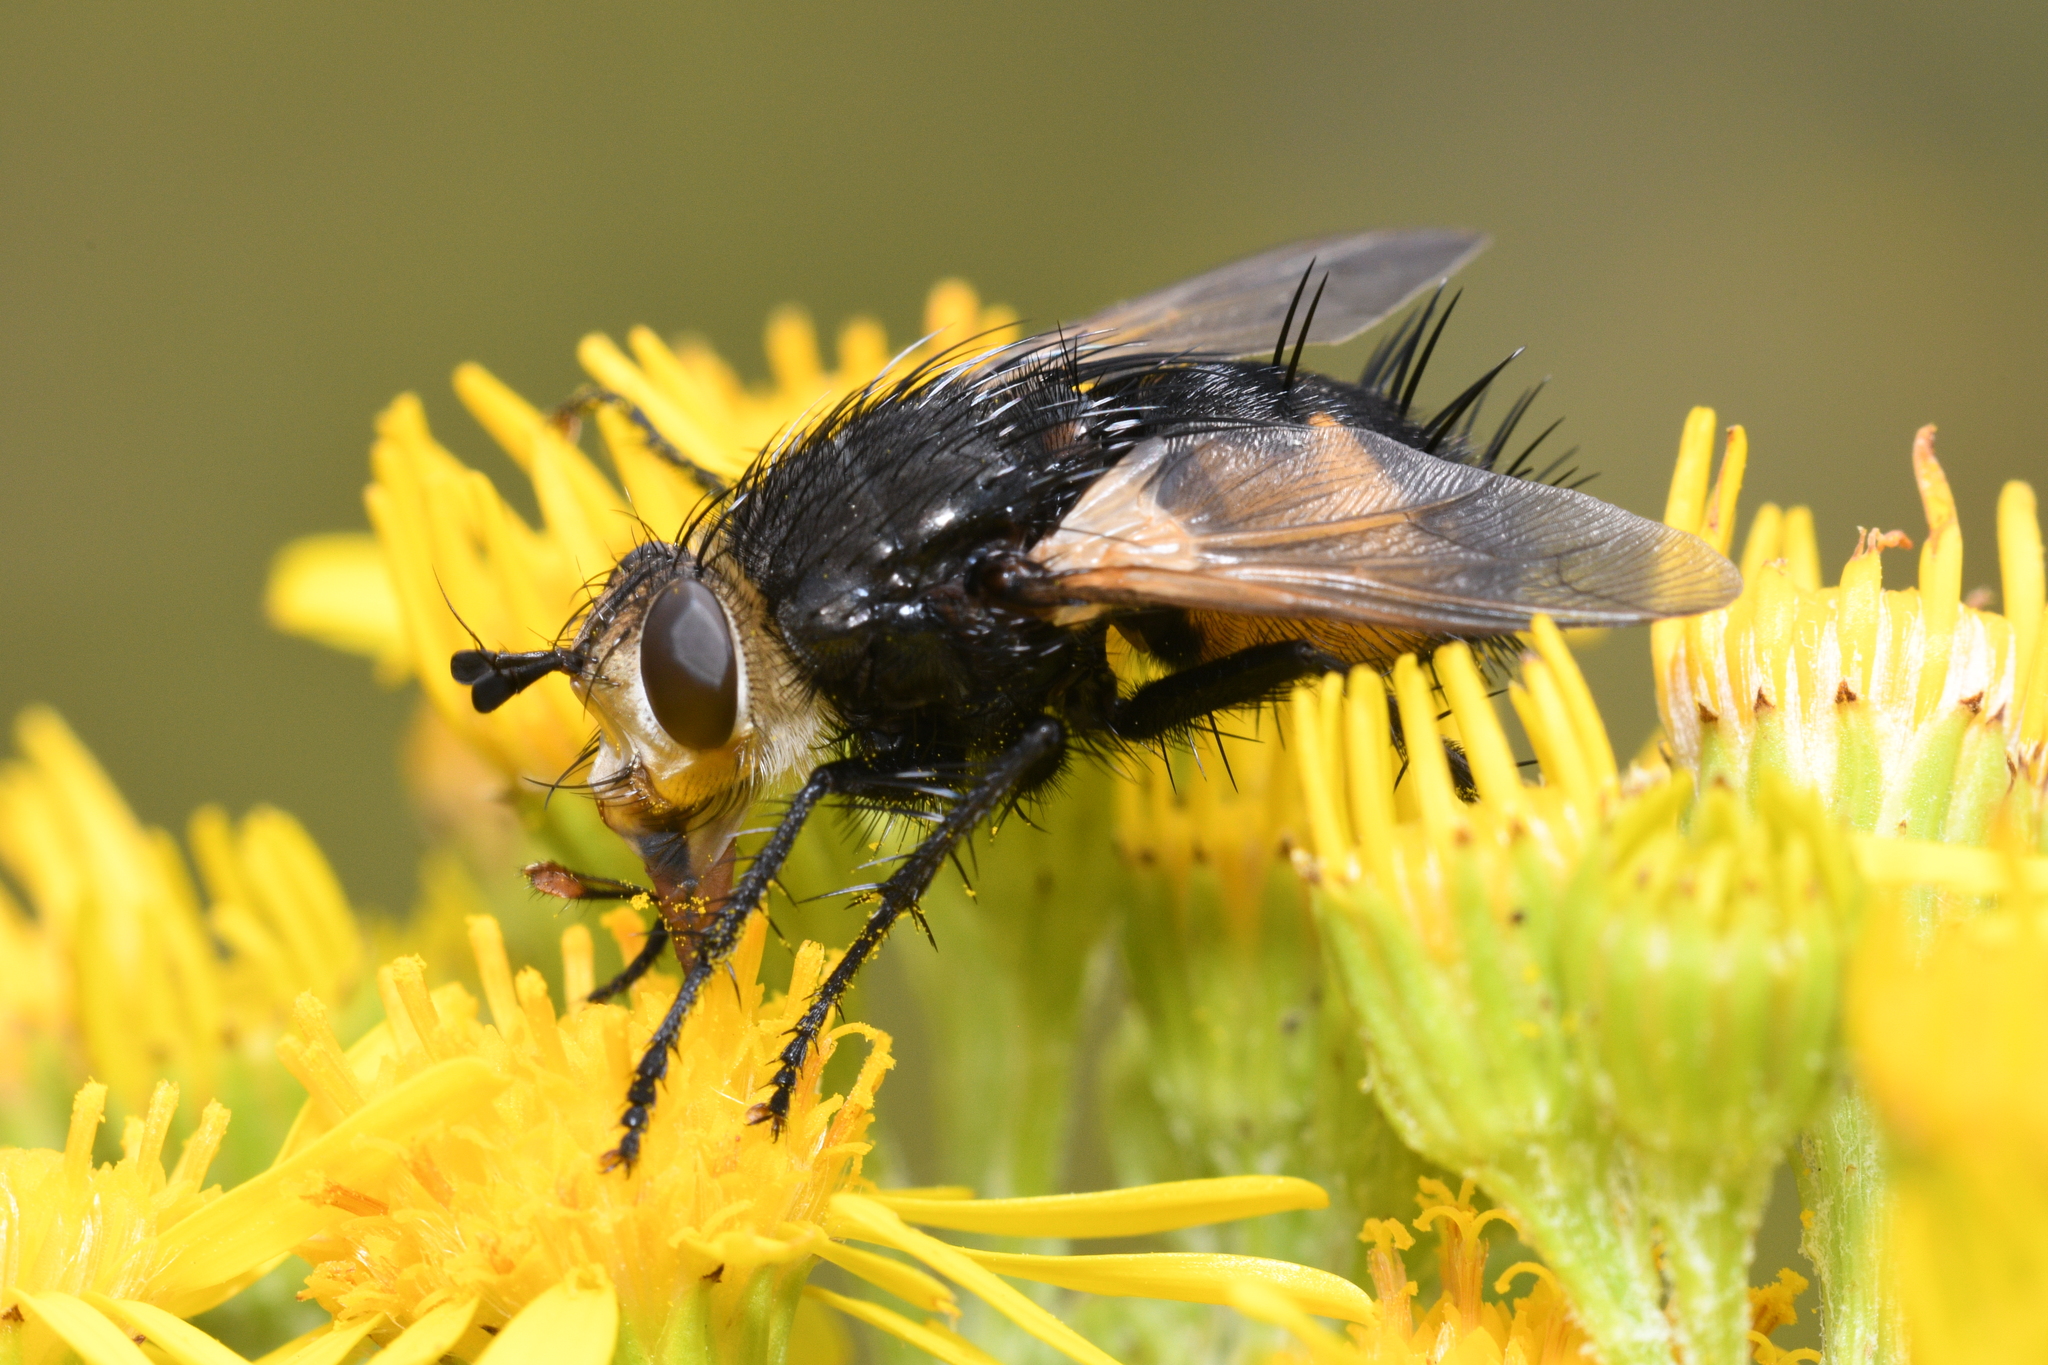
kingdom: Animalia
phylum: Arthropoda
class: Insecta
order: Diptera
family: Tachinidae
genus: Nowickia
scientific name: Nowickia ferox
